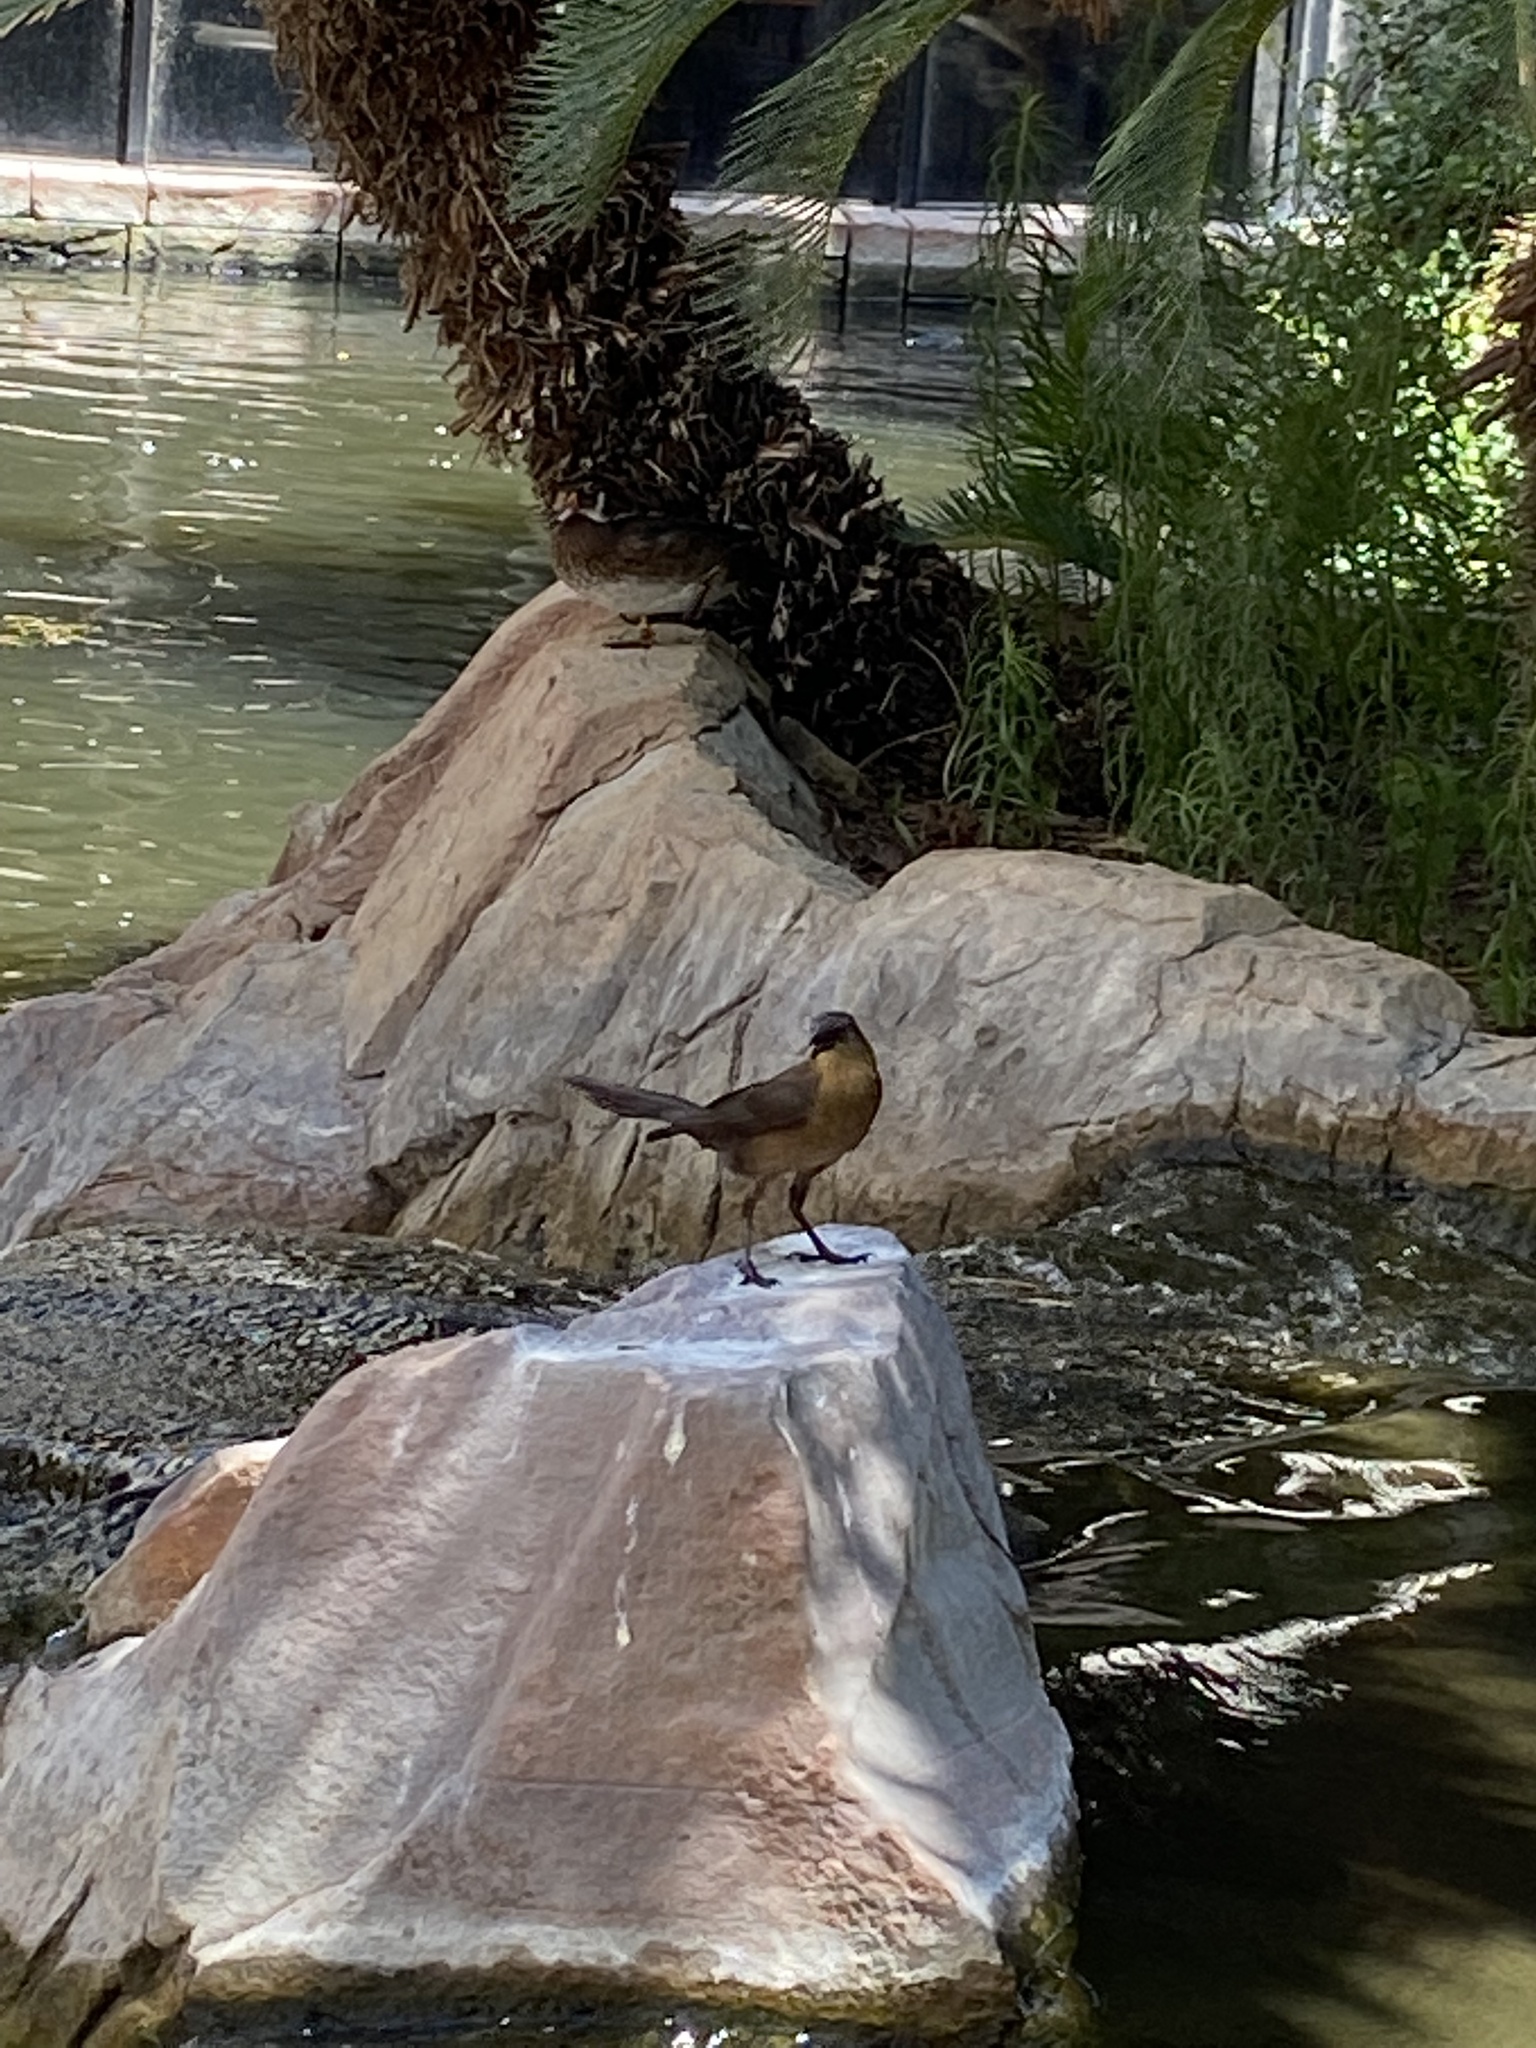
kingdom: Animalia
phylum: Chordata
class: Aves
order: Passeriformes
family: Icteridae
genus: Quiscalus
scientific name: Quiscalus mexicanus
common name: Great-tailed grackle
